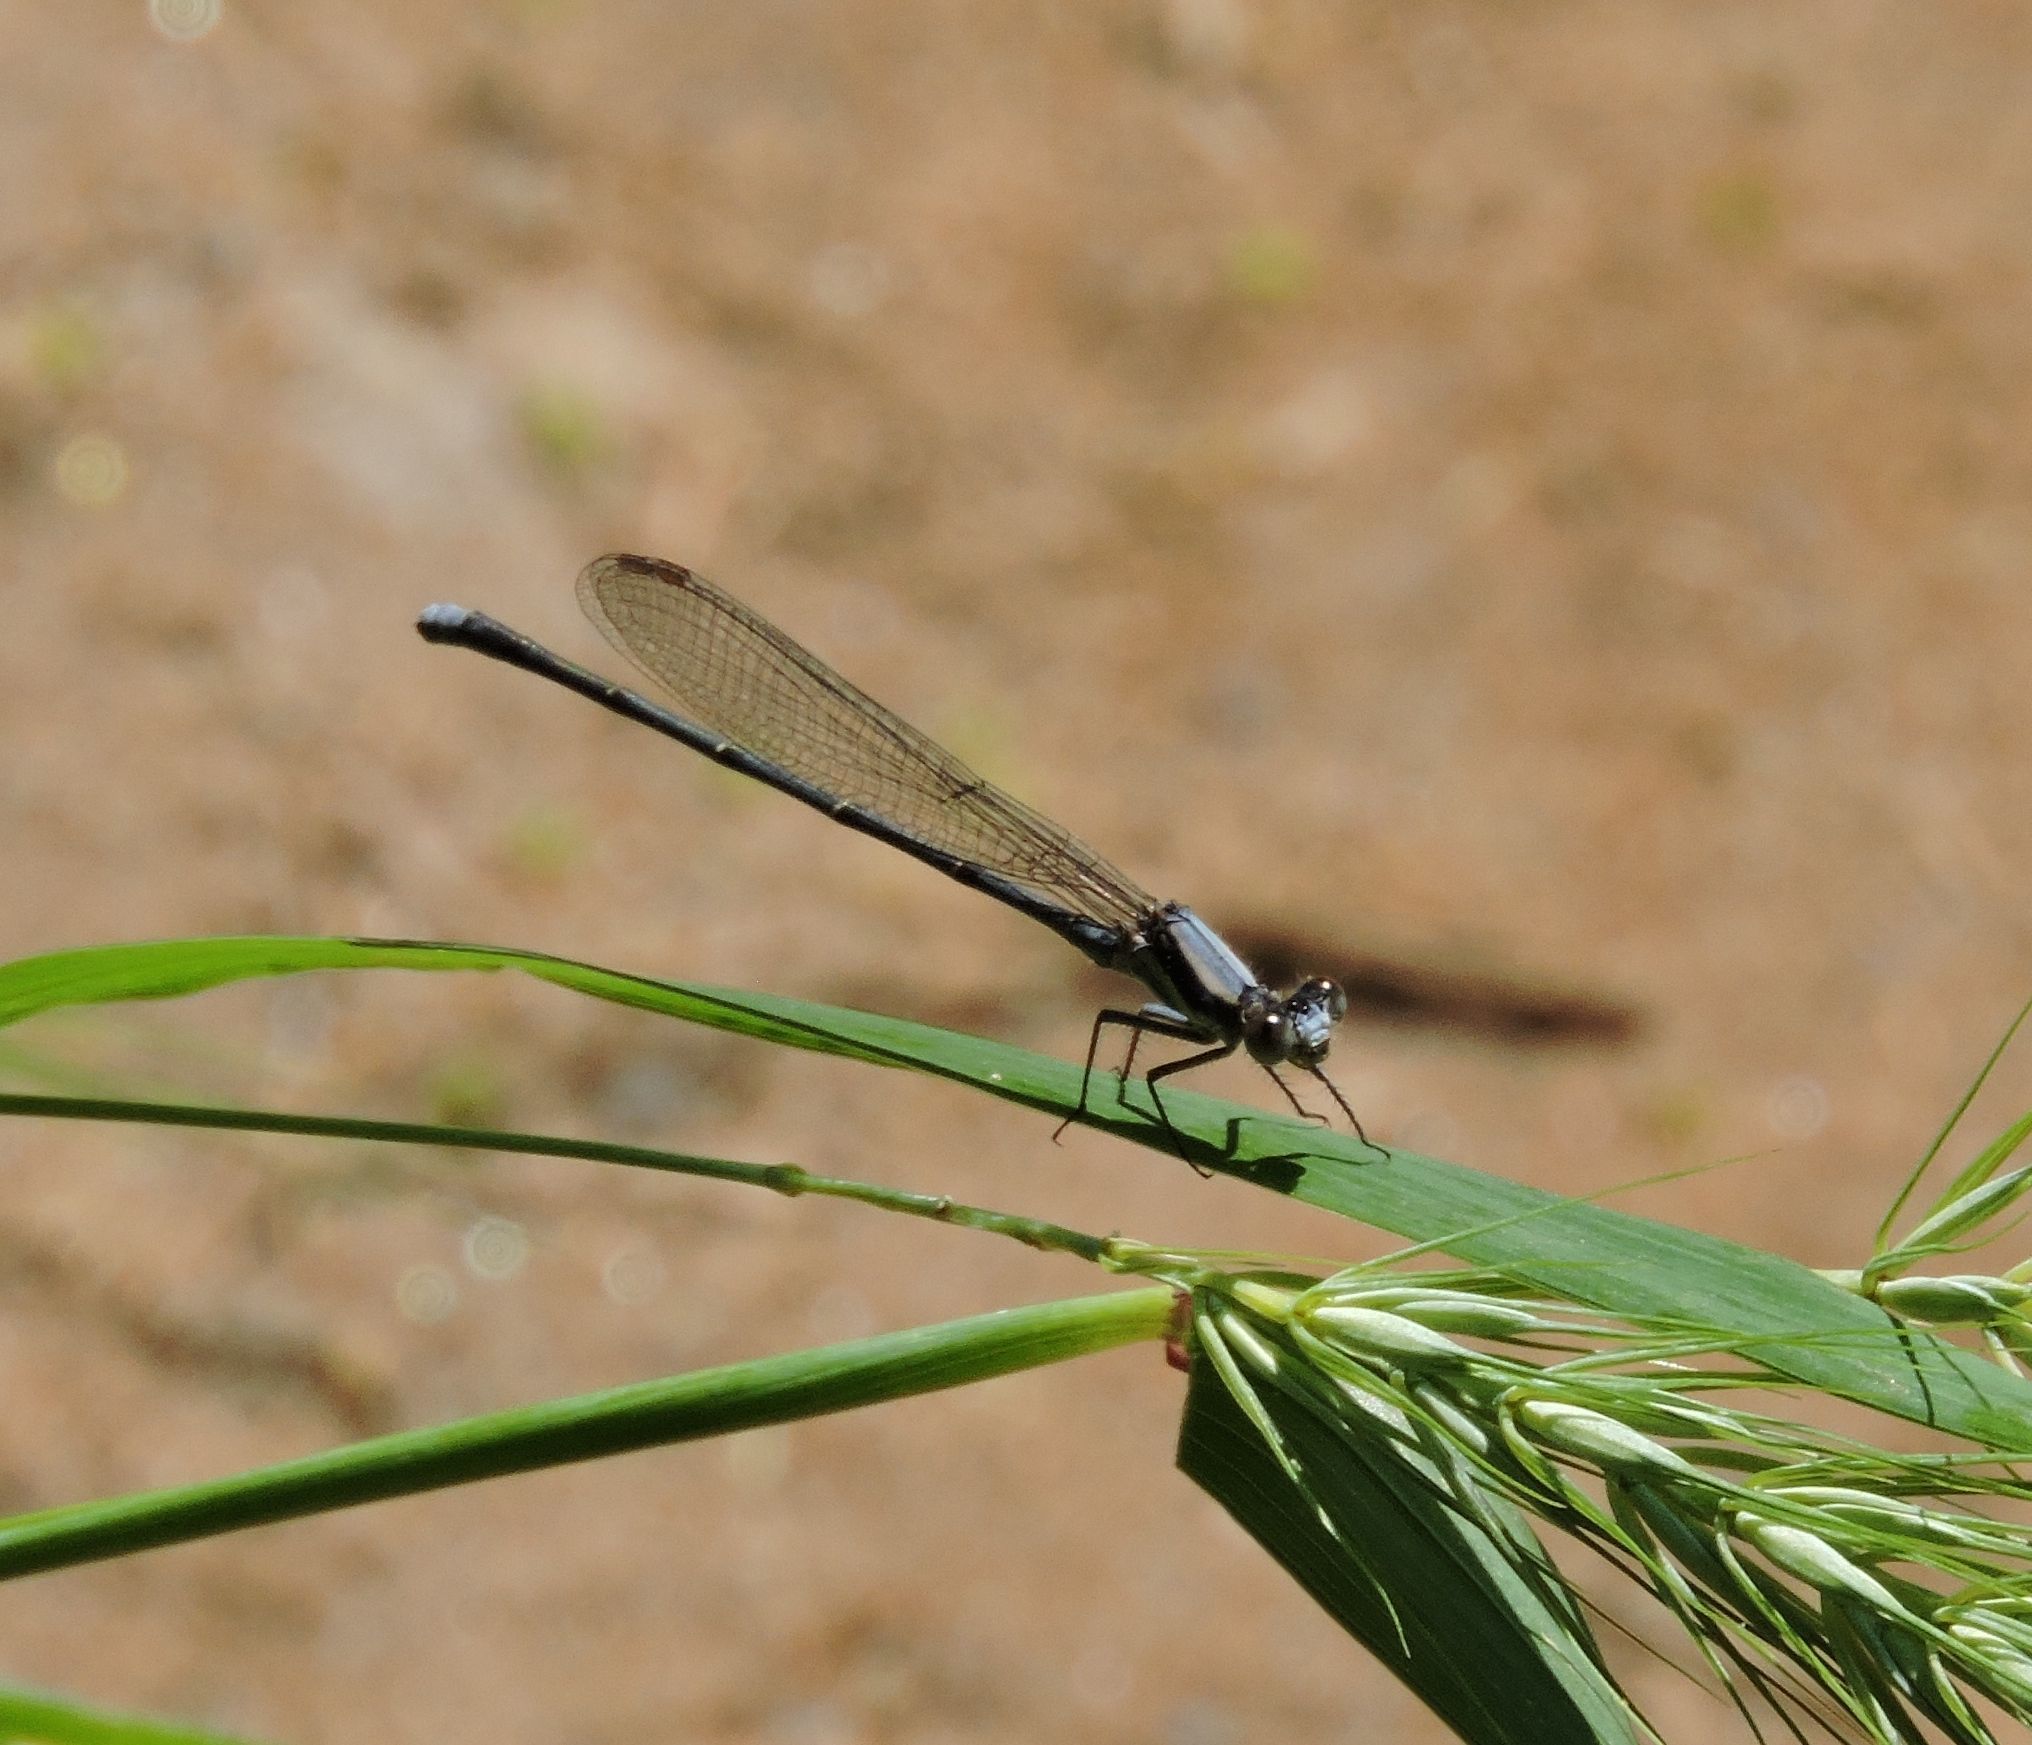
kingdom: Animalia
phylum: Arthropoda
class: Insecta
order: Odonata
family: Coenagrionidae
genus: Argia
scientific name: Argia moesta
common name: Powdered dancer
